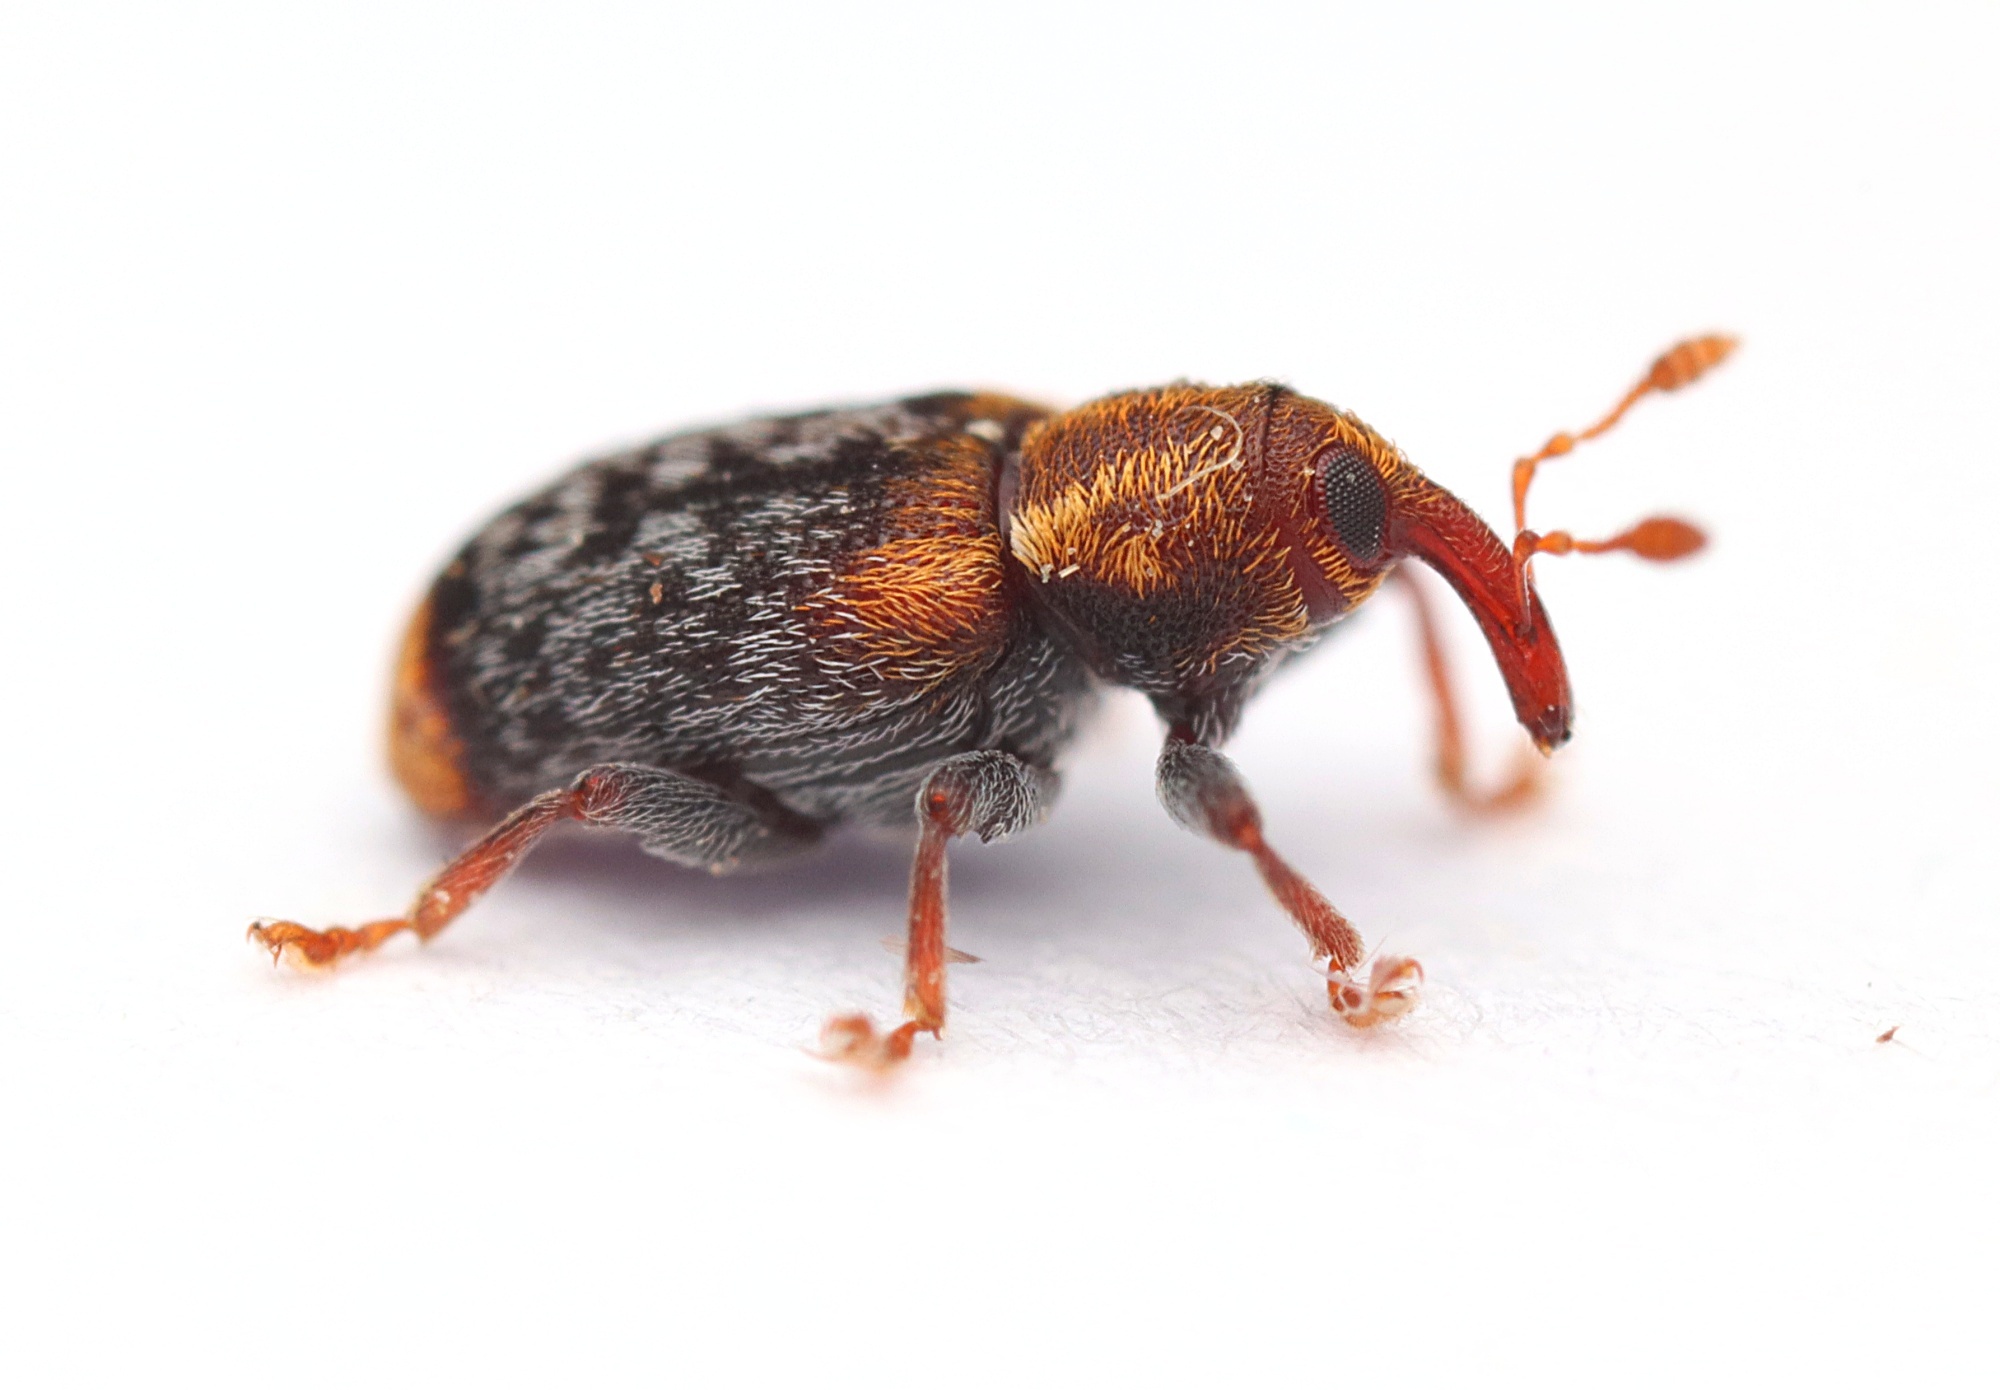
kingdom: Animalia
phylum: Arthropoda
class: Insecta
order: Coleoptera
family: Curculionidae
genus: Peristoreus
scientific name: Peristoreus flavitarsis
